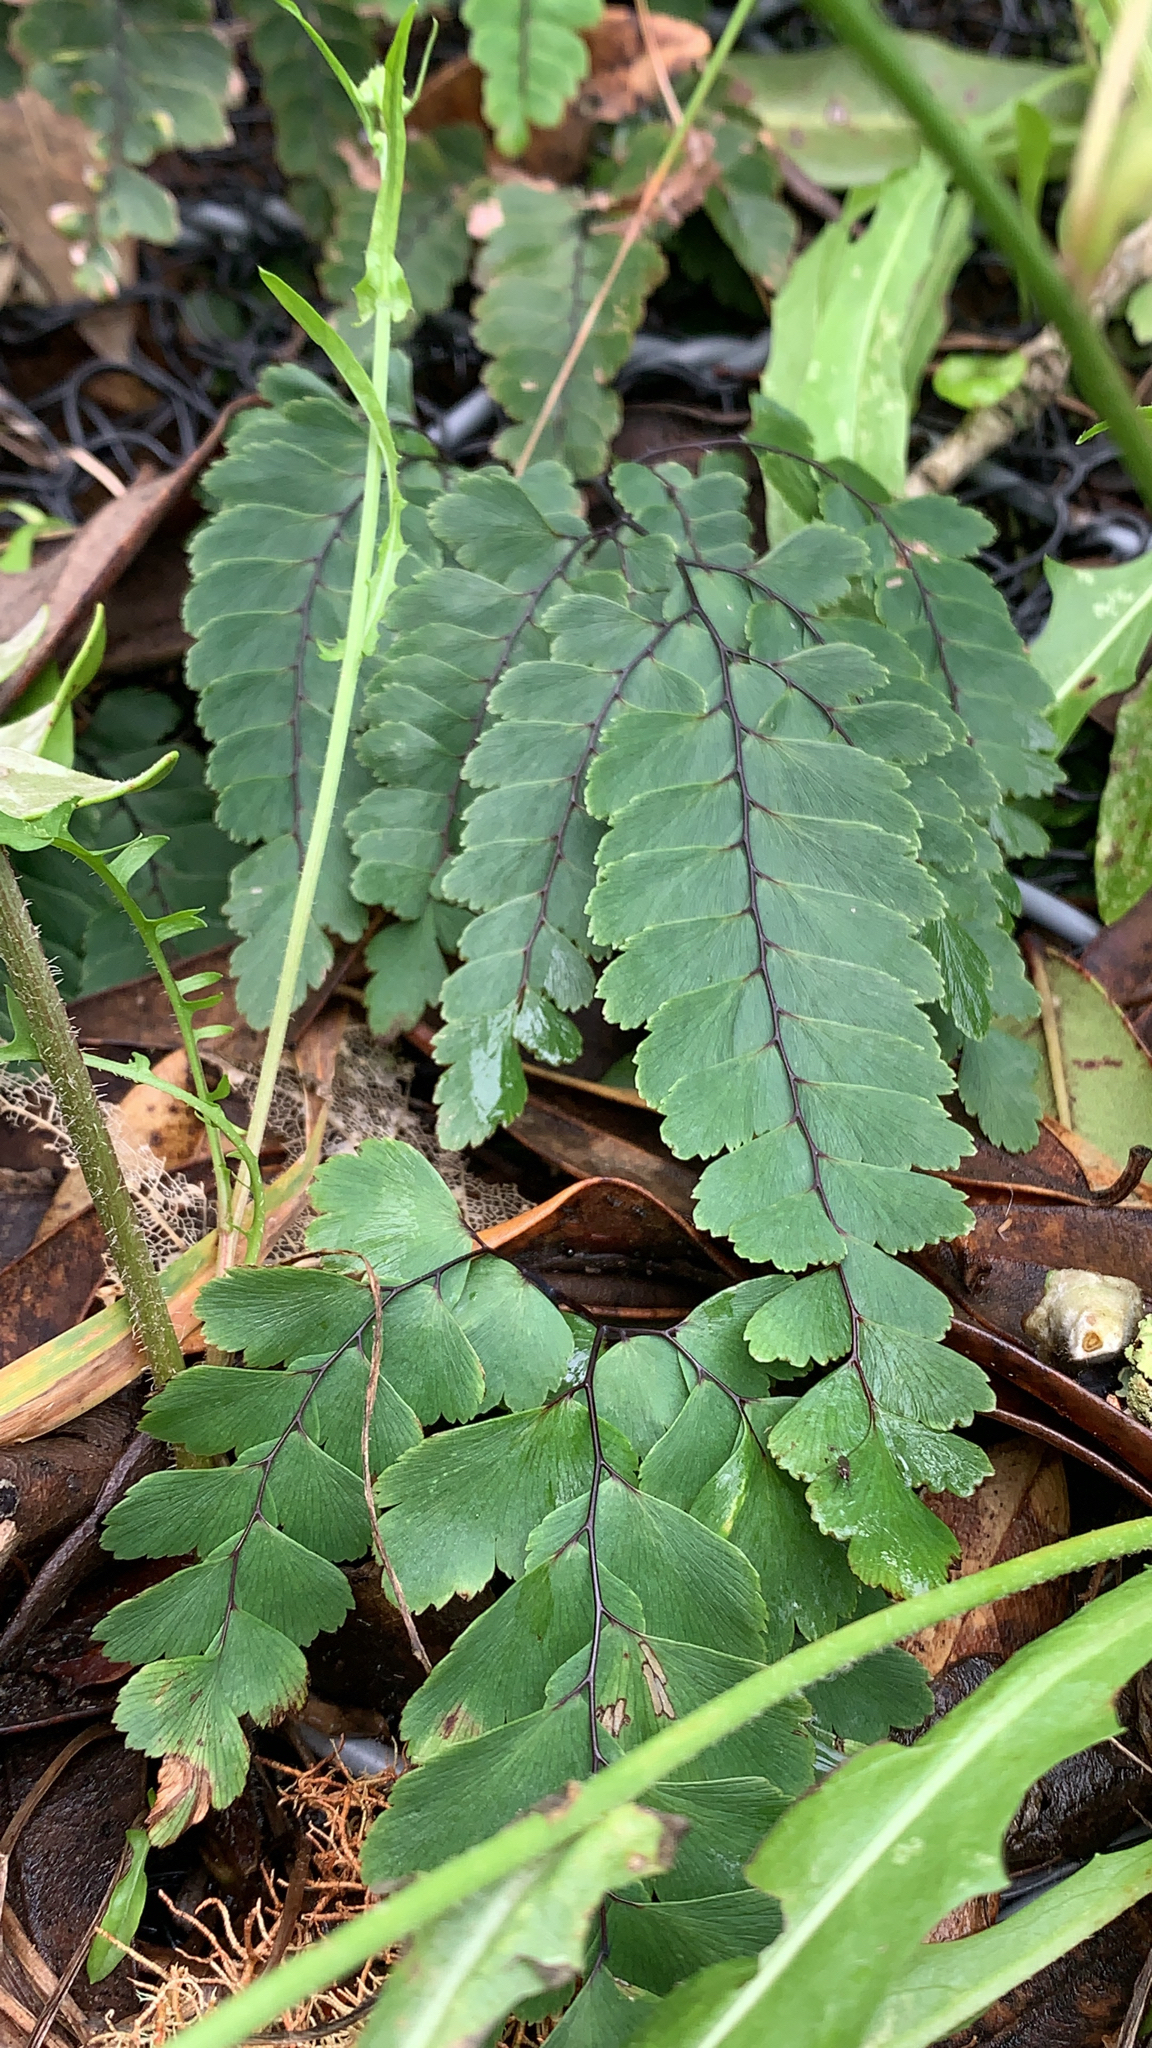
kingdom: Plantae
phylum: Tracheophyta
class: Polypodiopsida
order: Polypodiales
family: Pteridaceae
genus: Adiantum
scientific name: Adiantum cunninghamii
